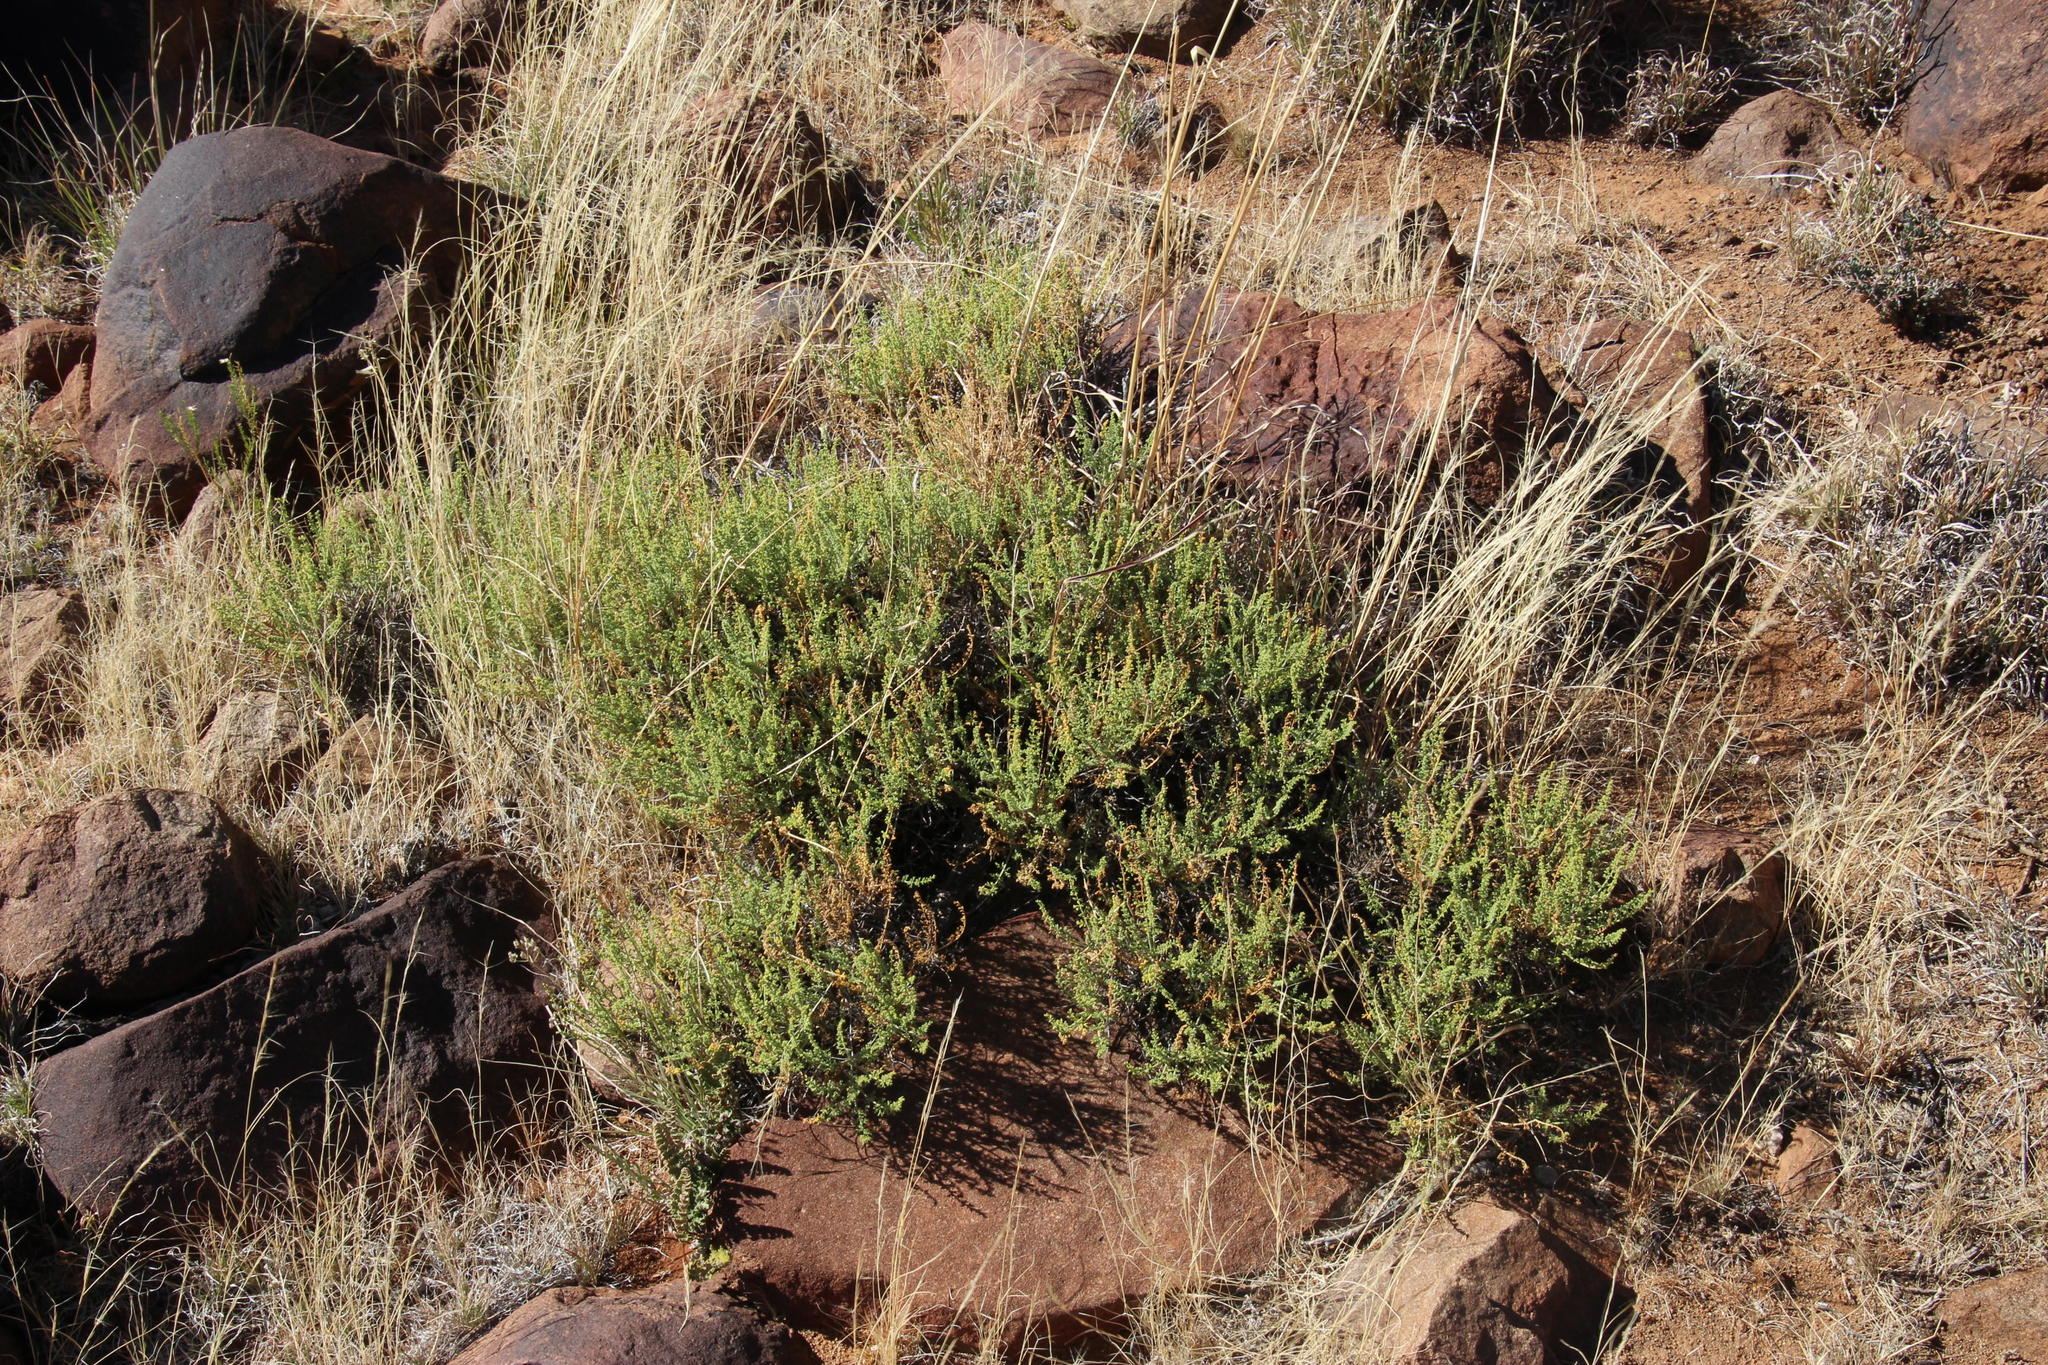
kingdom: Plantae
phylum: Tracheophyta
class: Magnoliopsida
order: Geraniales
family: Geraniaceae
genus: Pelargonium
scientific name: Pelargonium tragacanthoides
